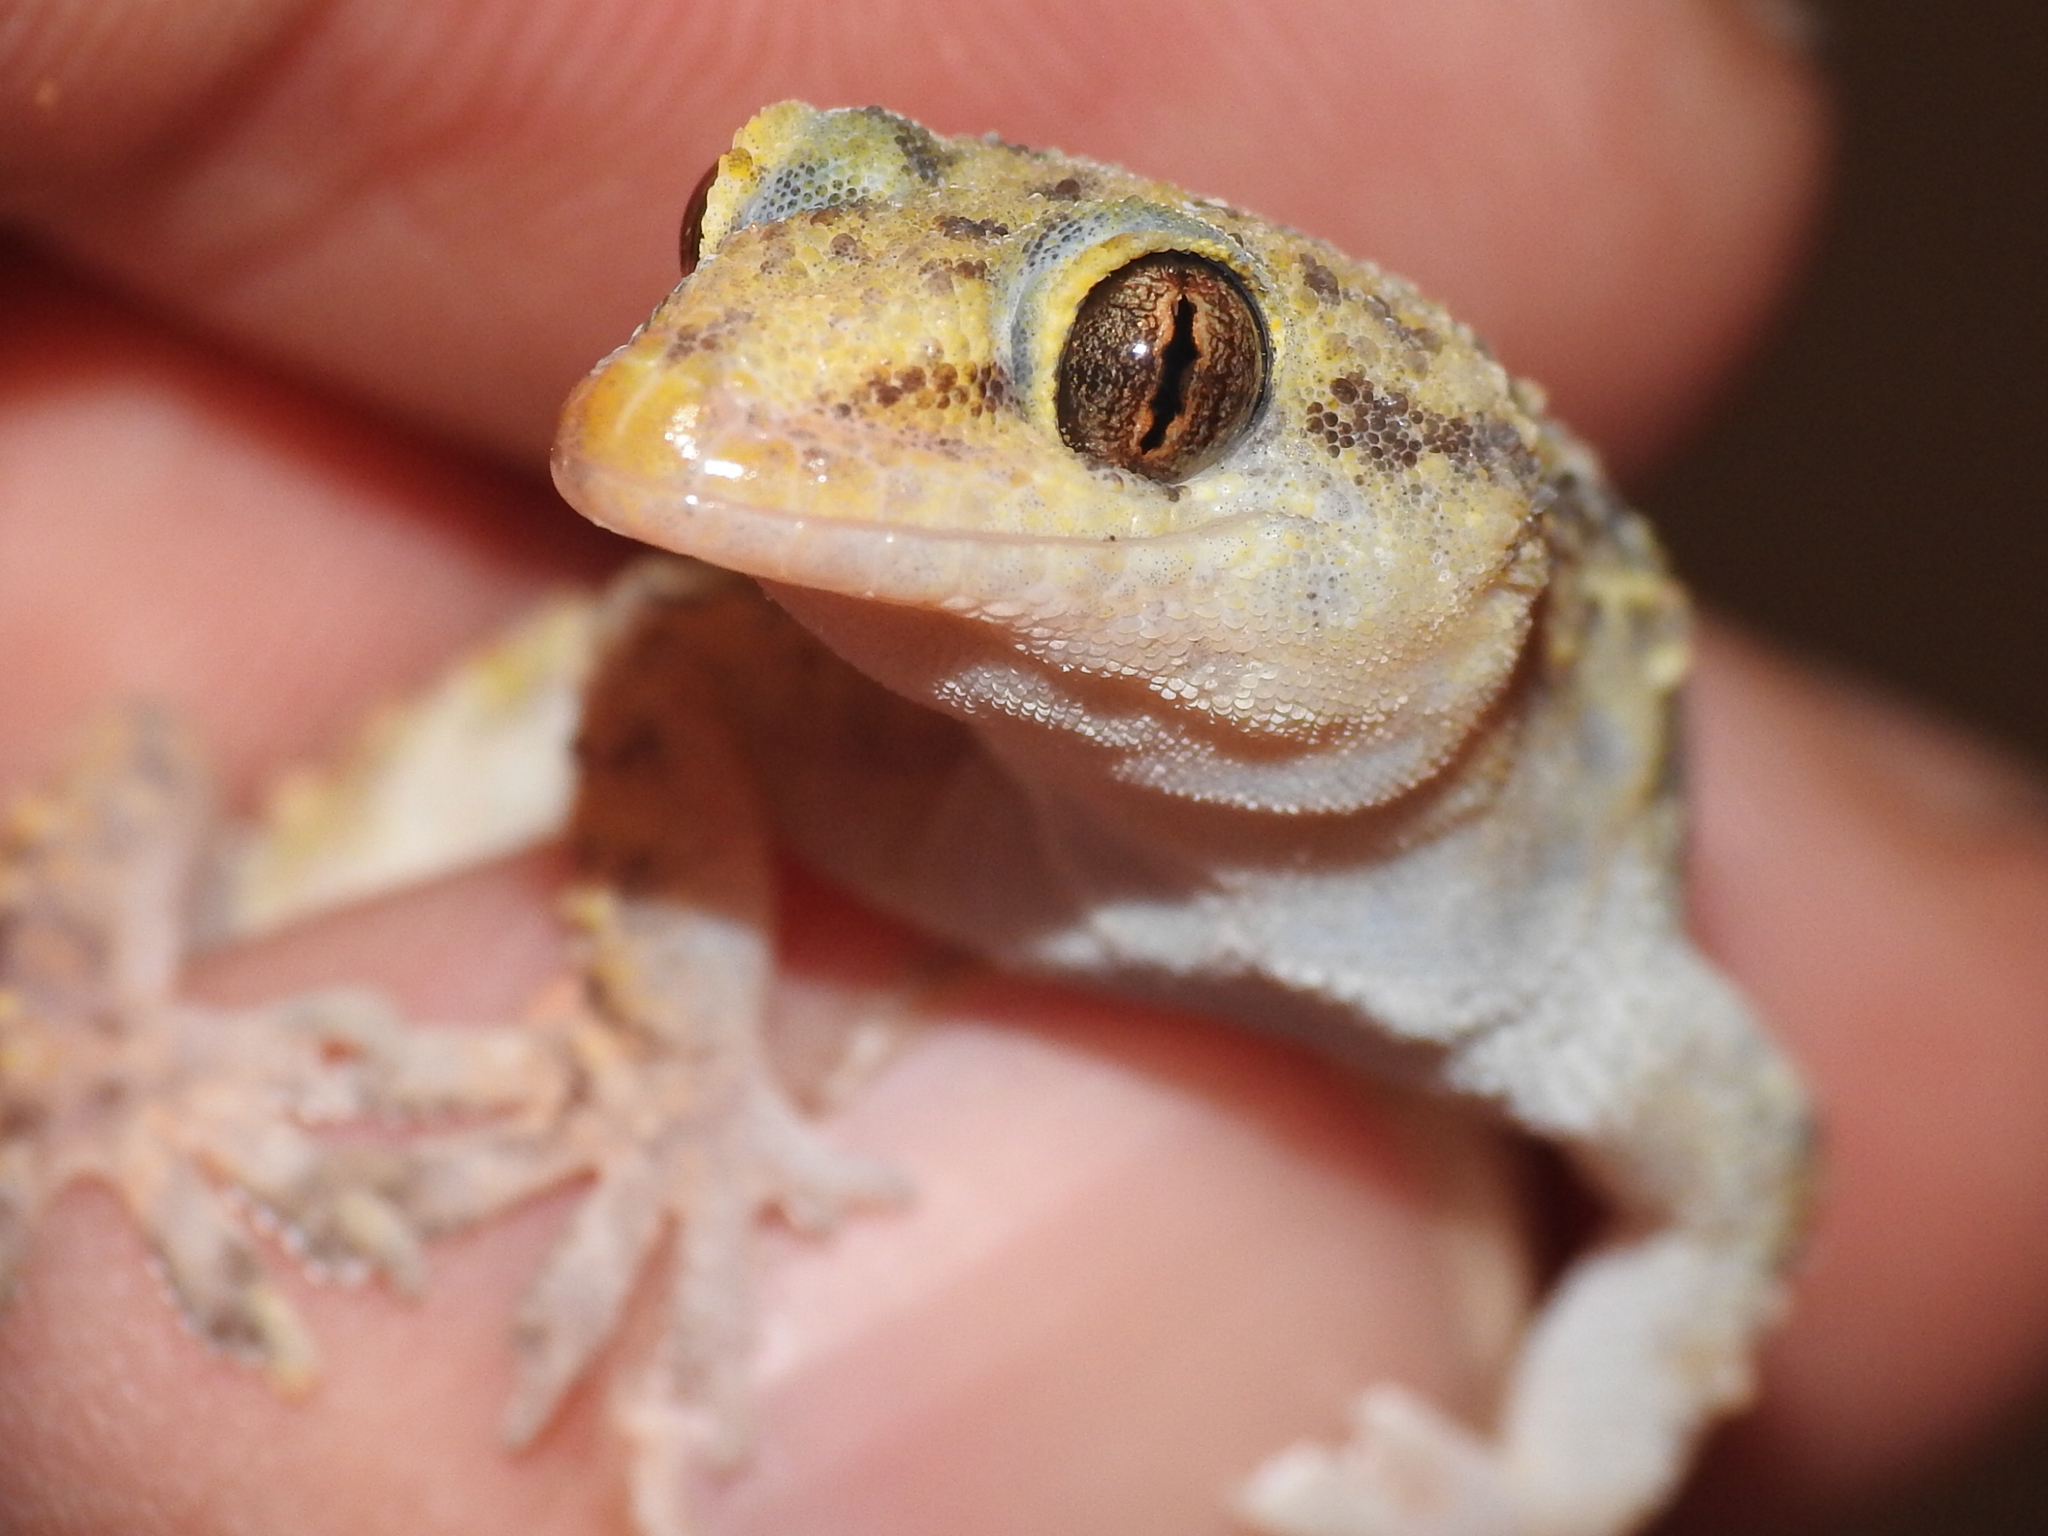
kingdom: Animalia
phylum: Chordata
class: Squamata
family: Gekkonidae
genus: Hemidactylus
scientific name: Hemidactylus turcicus
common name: Turkish gecko
